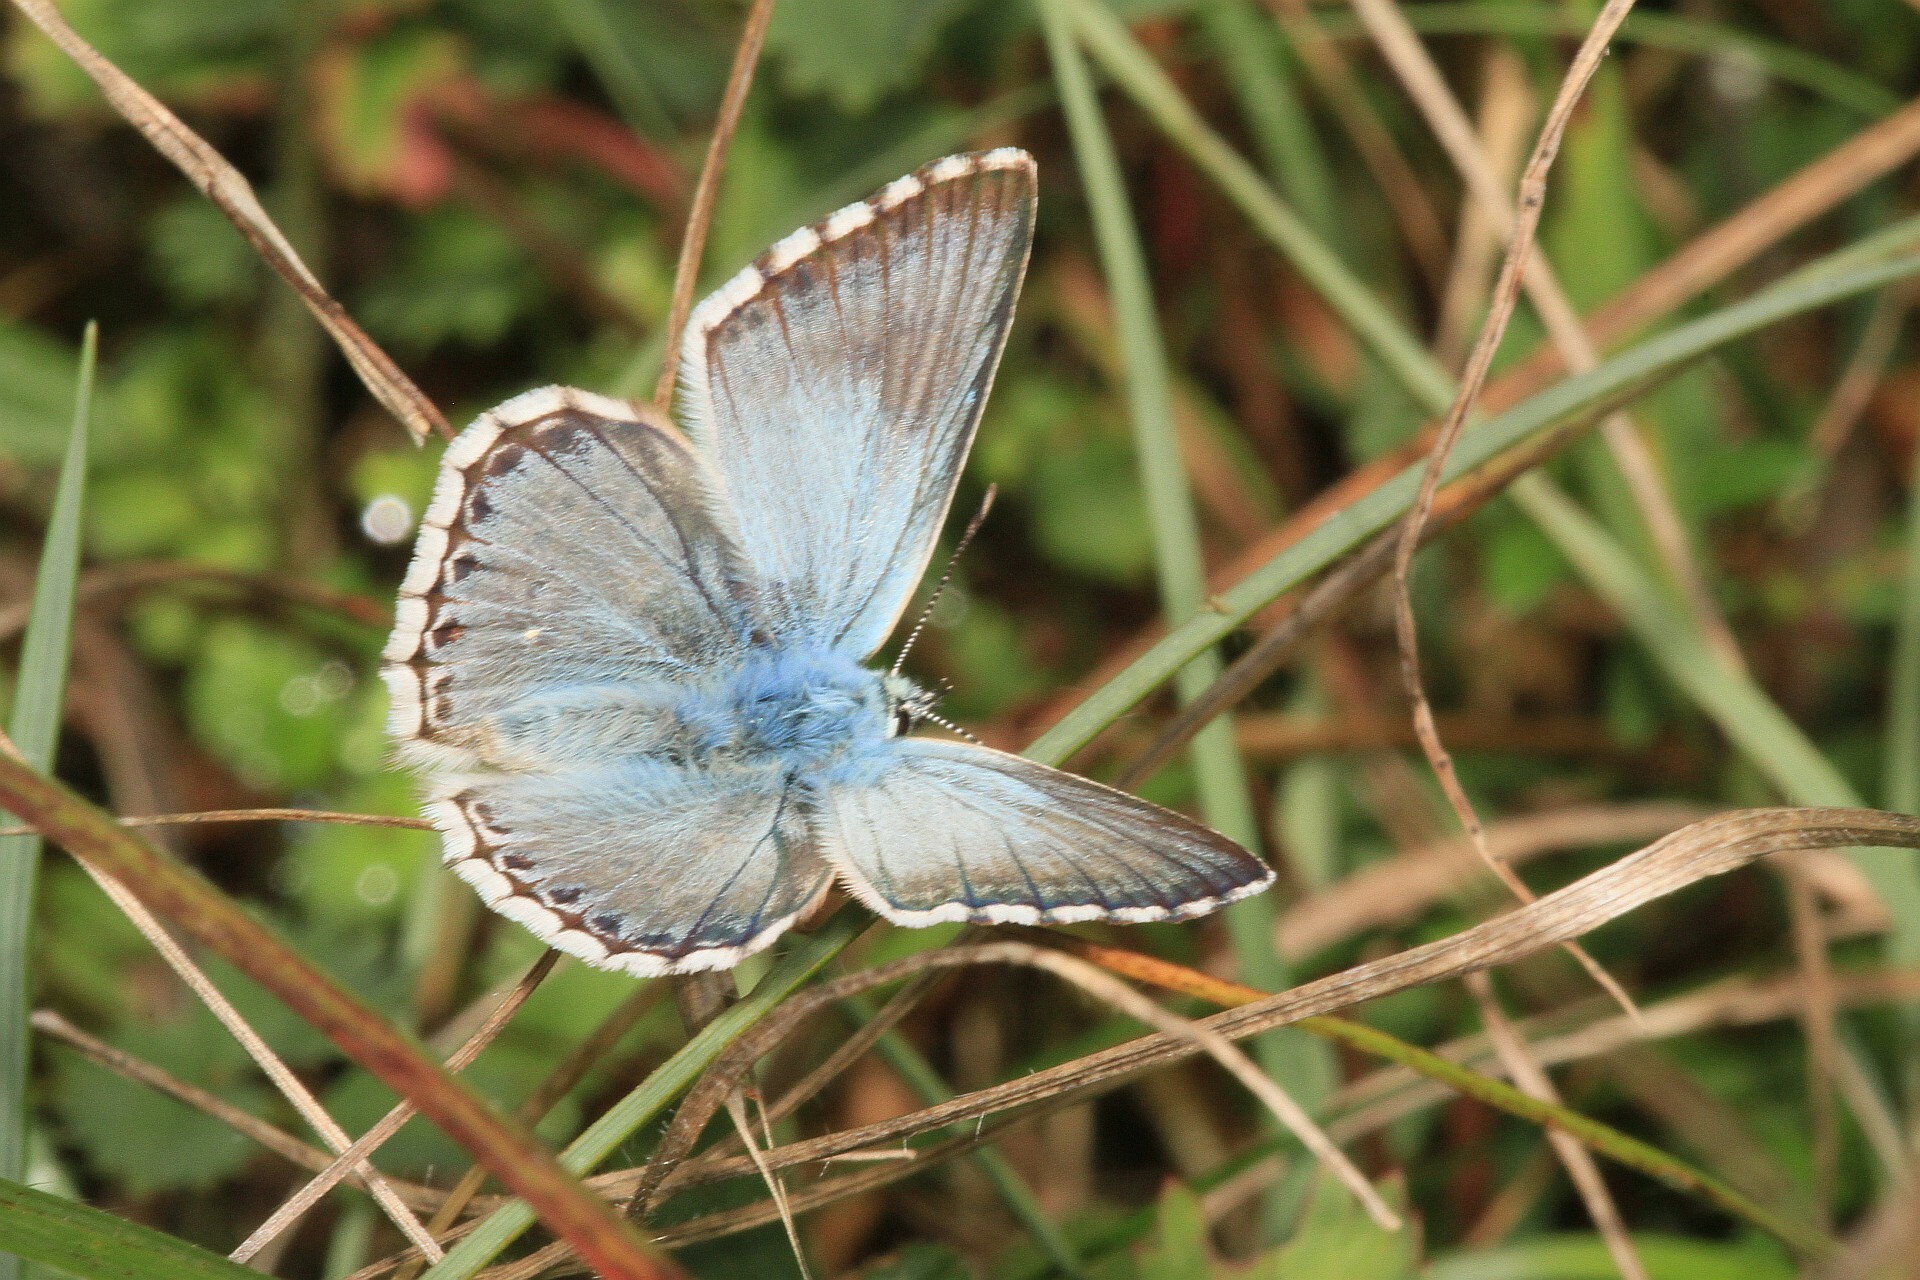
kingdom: Animalia
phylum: Arthropoda
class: Insecta
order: Lepidoptera
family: Lycaenidae
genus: Lysandra
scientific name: Lysandra coridon
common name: Chalkhill blue
